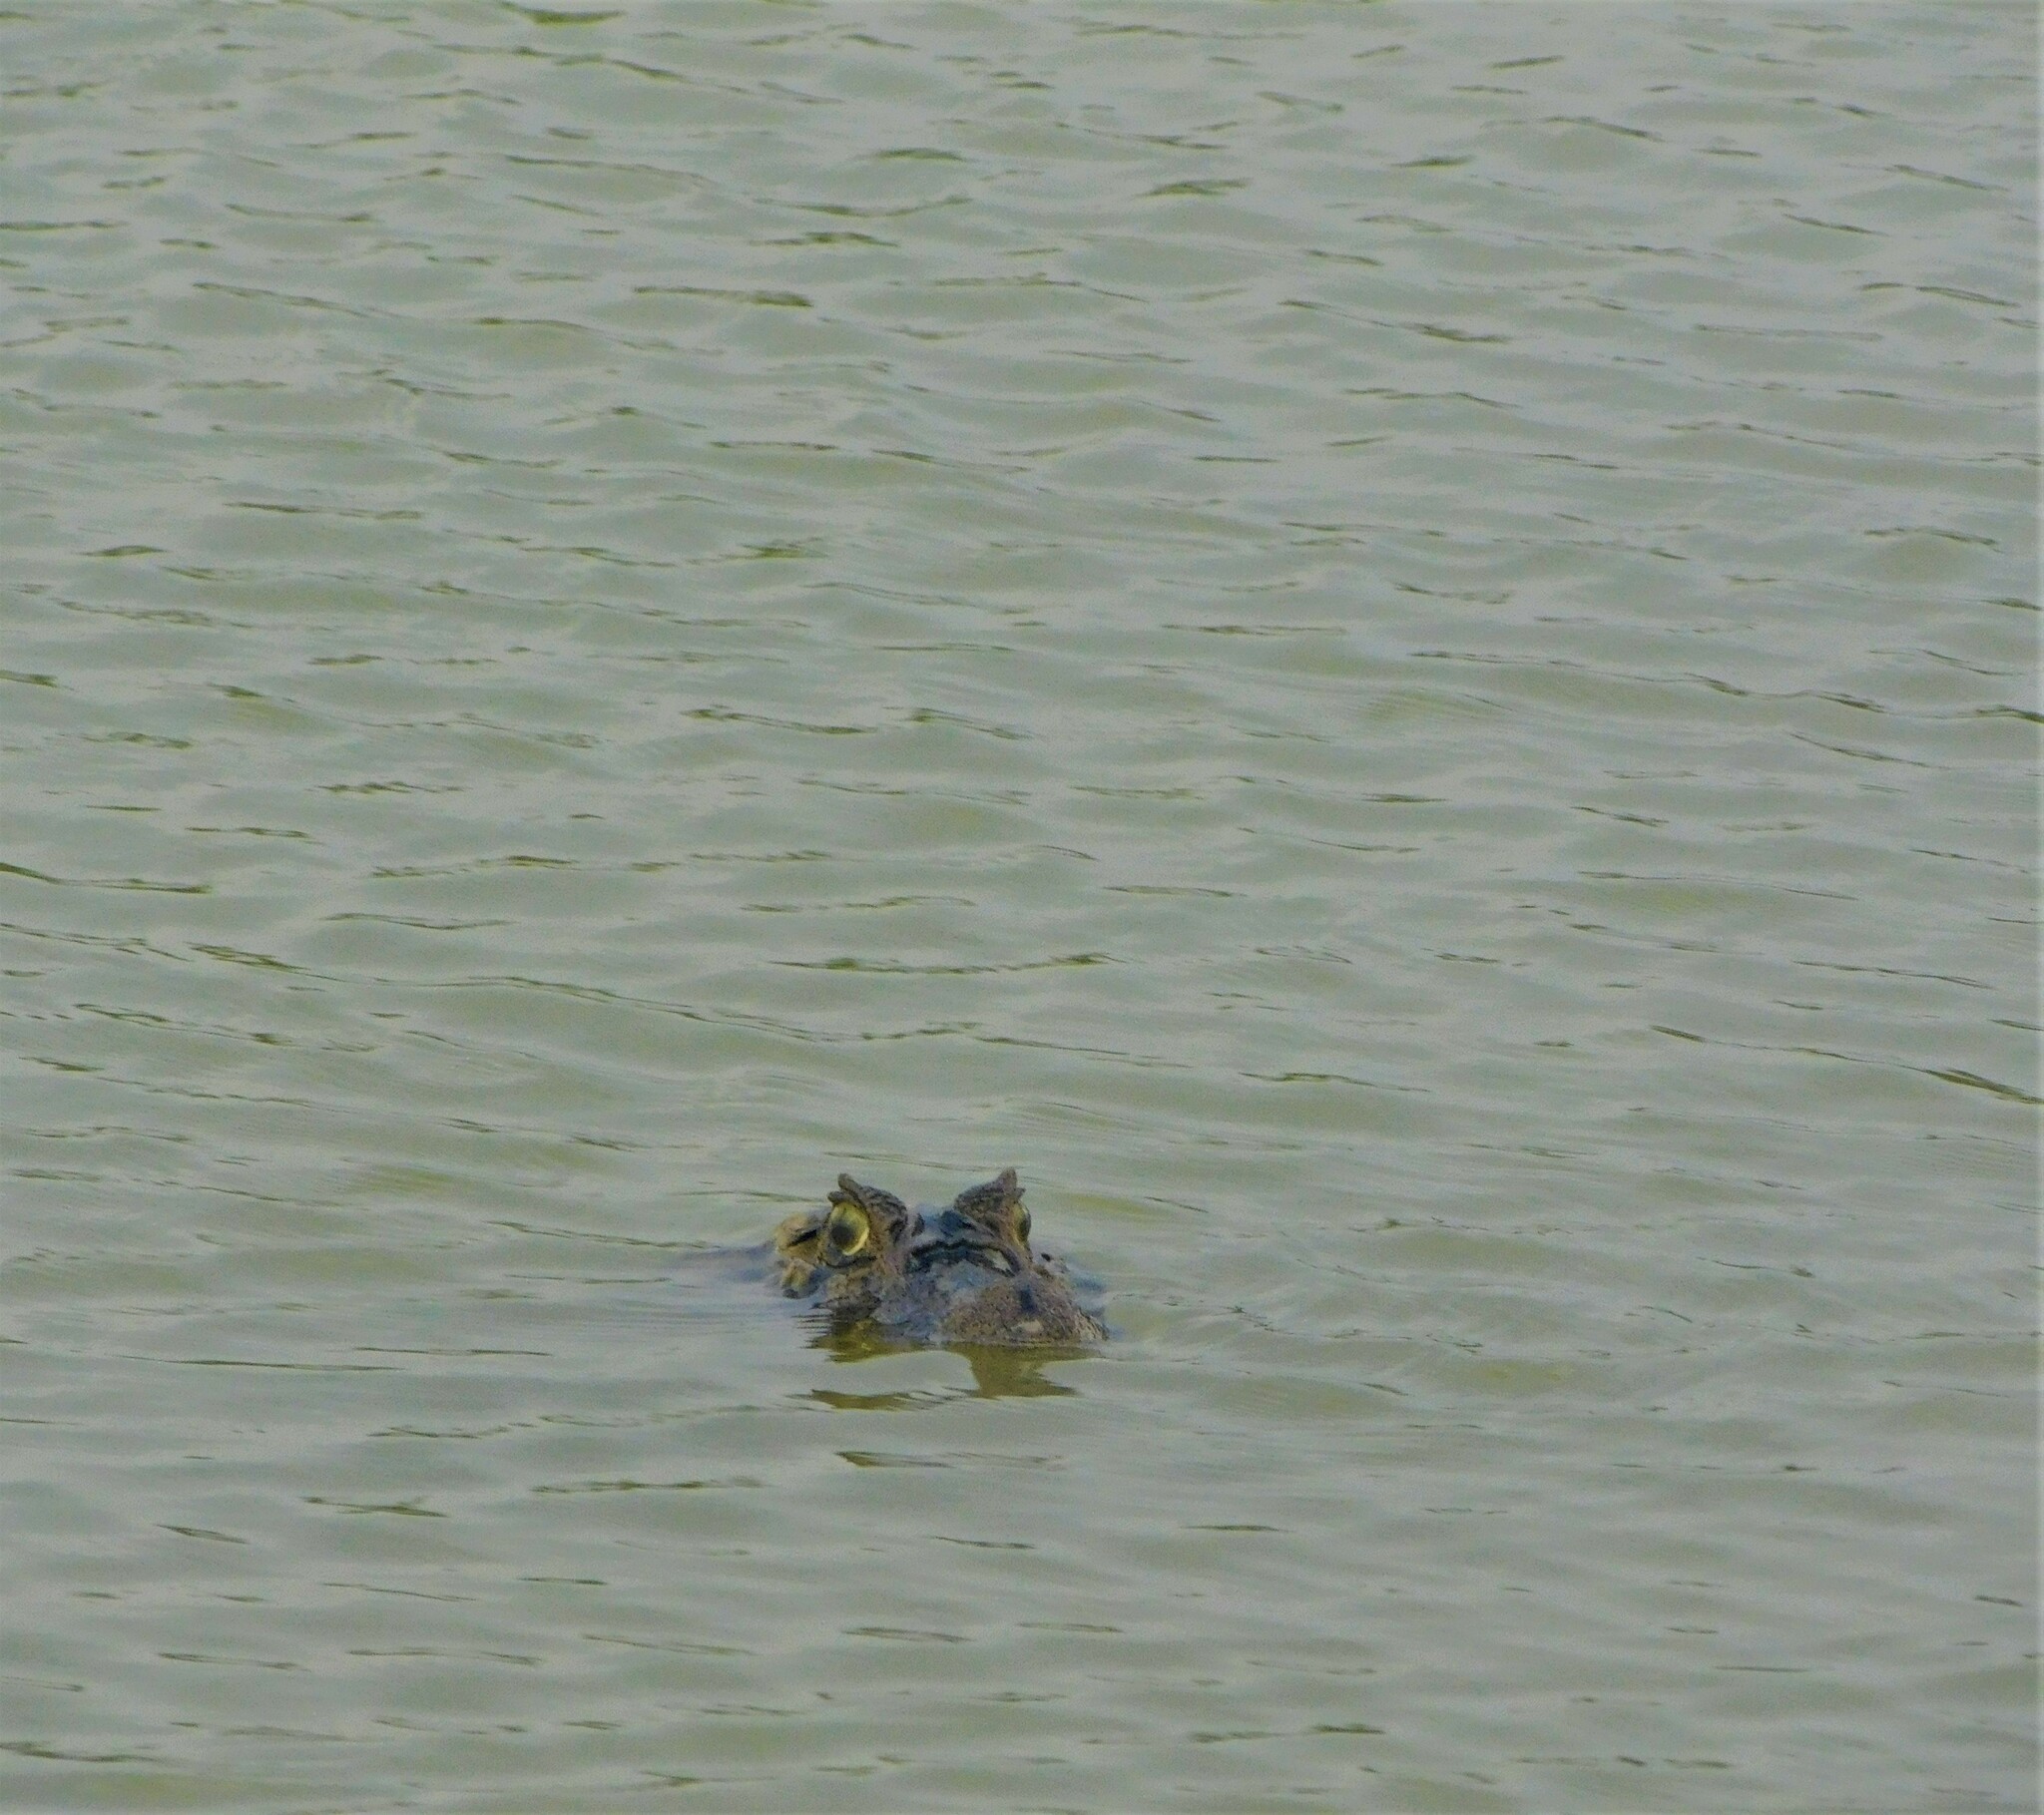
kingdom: Animalia
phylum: Chordata
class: Crocodylia
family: Alligatoridae
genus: Caiman
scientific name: Caiman latirostris
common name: Broad-snouted caiman
